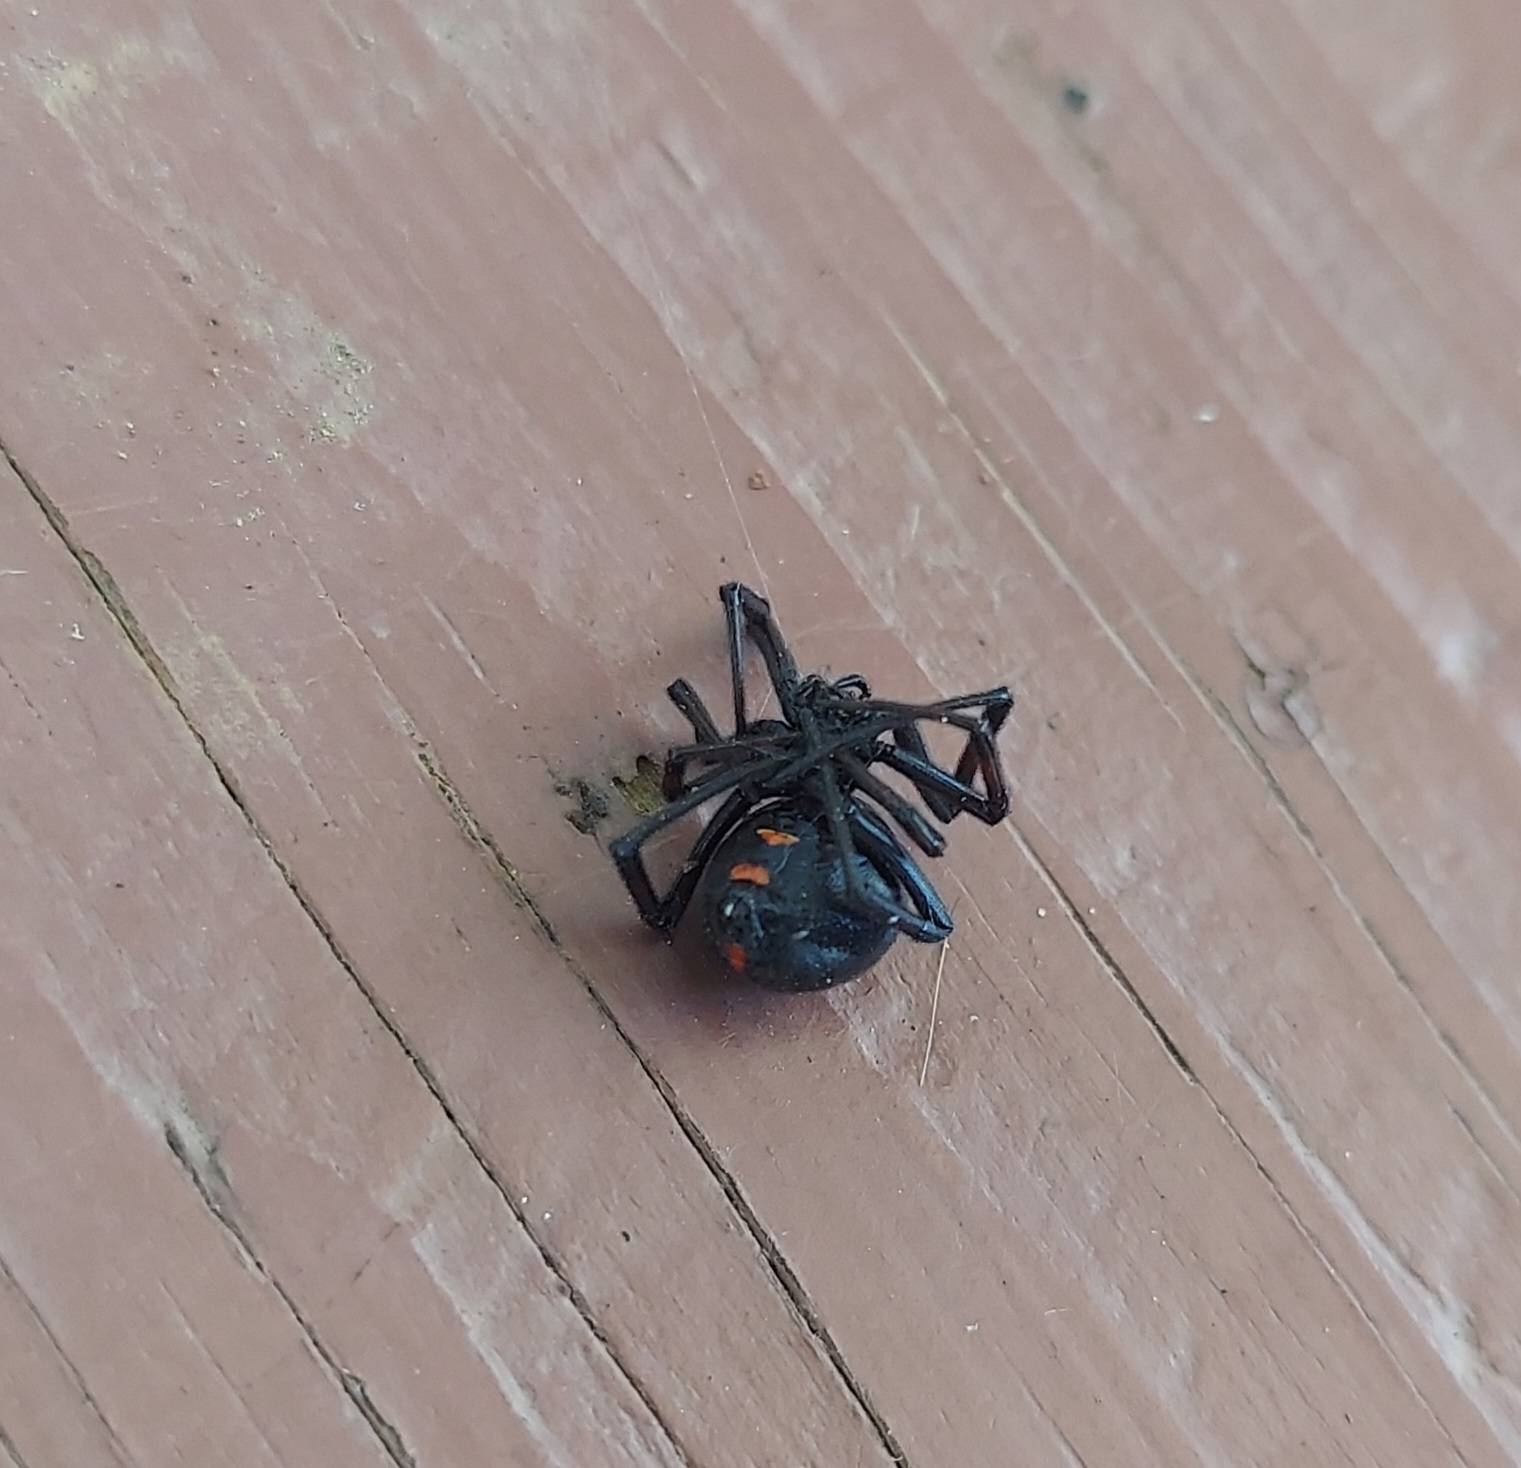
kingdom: Animalia
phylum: Arthropoda
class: Arachnida
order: Araneae
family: Theridiidae
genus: Latrodectus
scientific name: Latrodectus variolus
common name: Northern black widow
